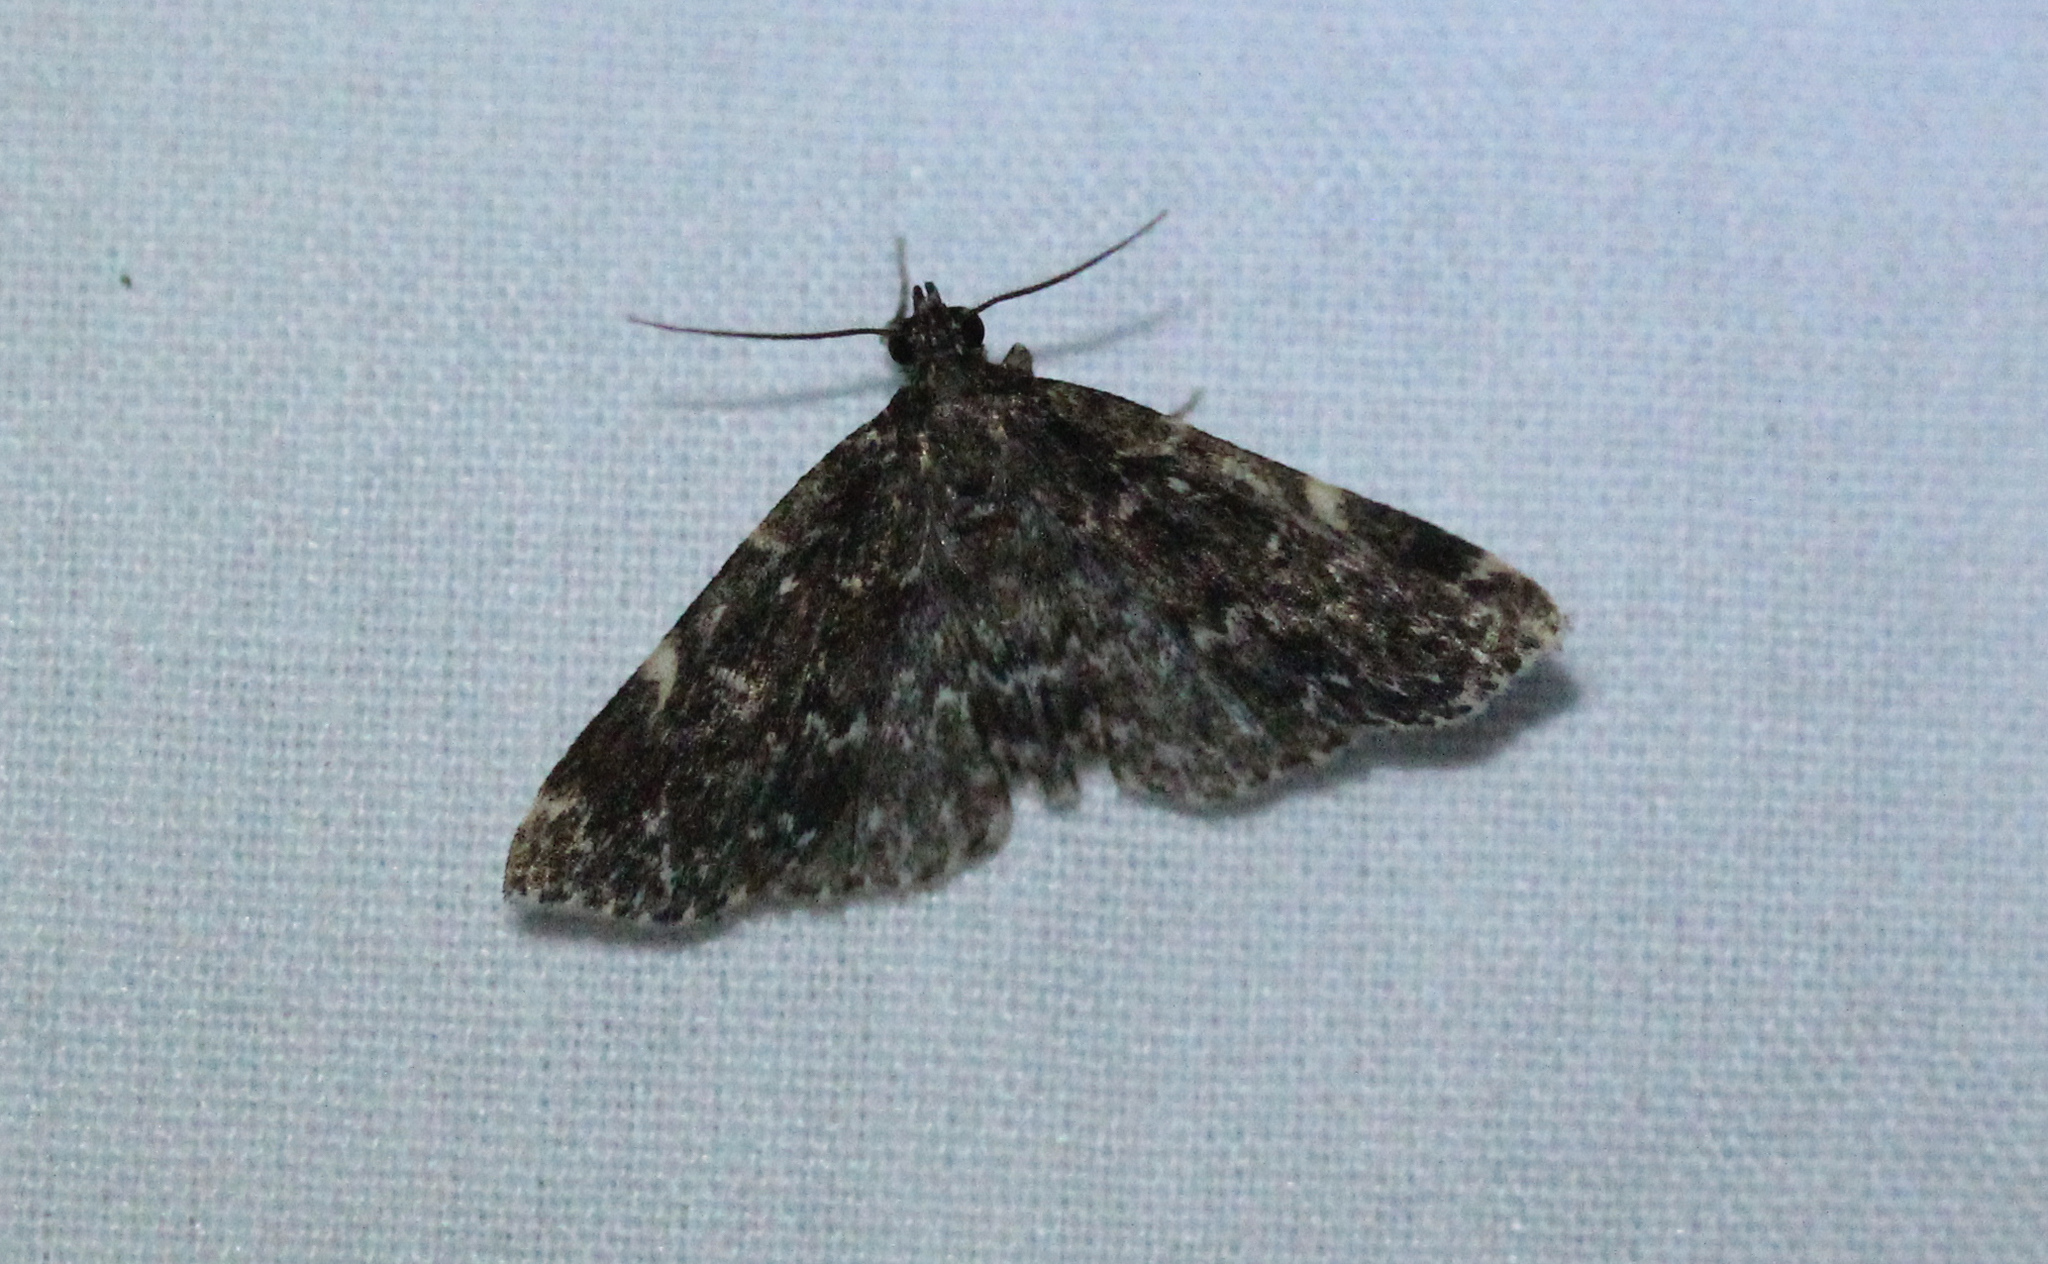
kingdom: Animalia
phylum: Arthropoda
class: Insecta
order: Lepidoptera
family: Erebidae
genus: Idia
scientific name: Idia scobialis
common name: Smoky idia moth
